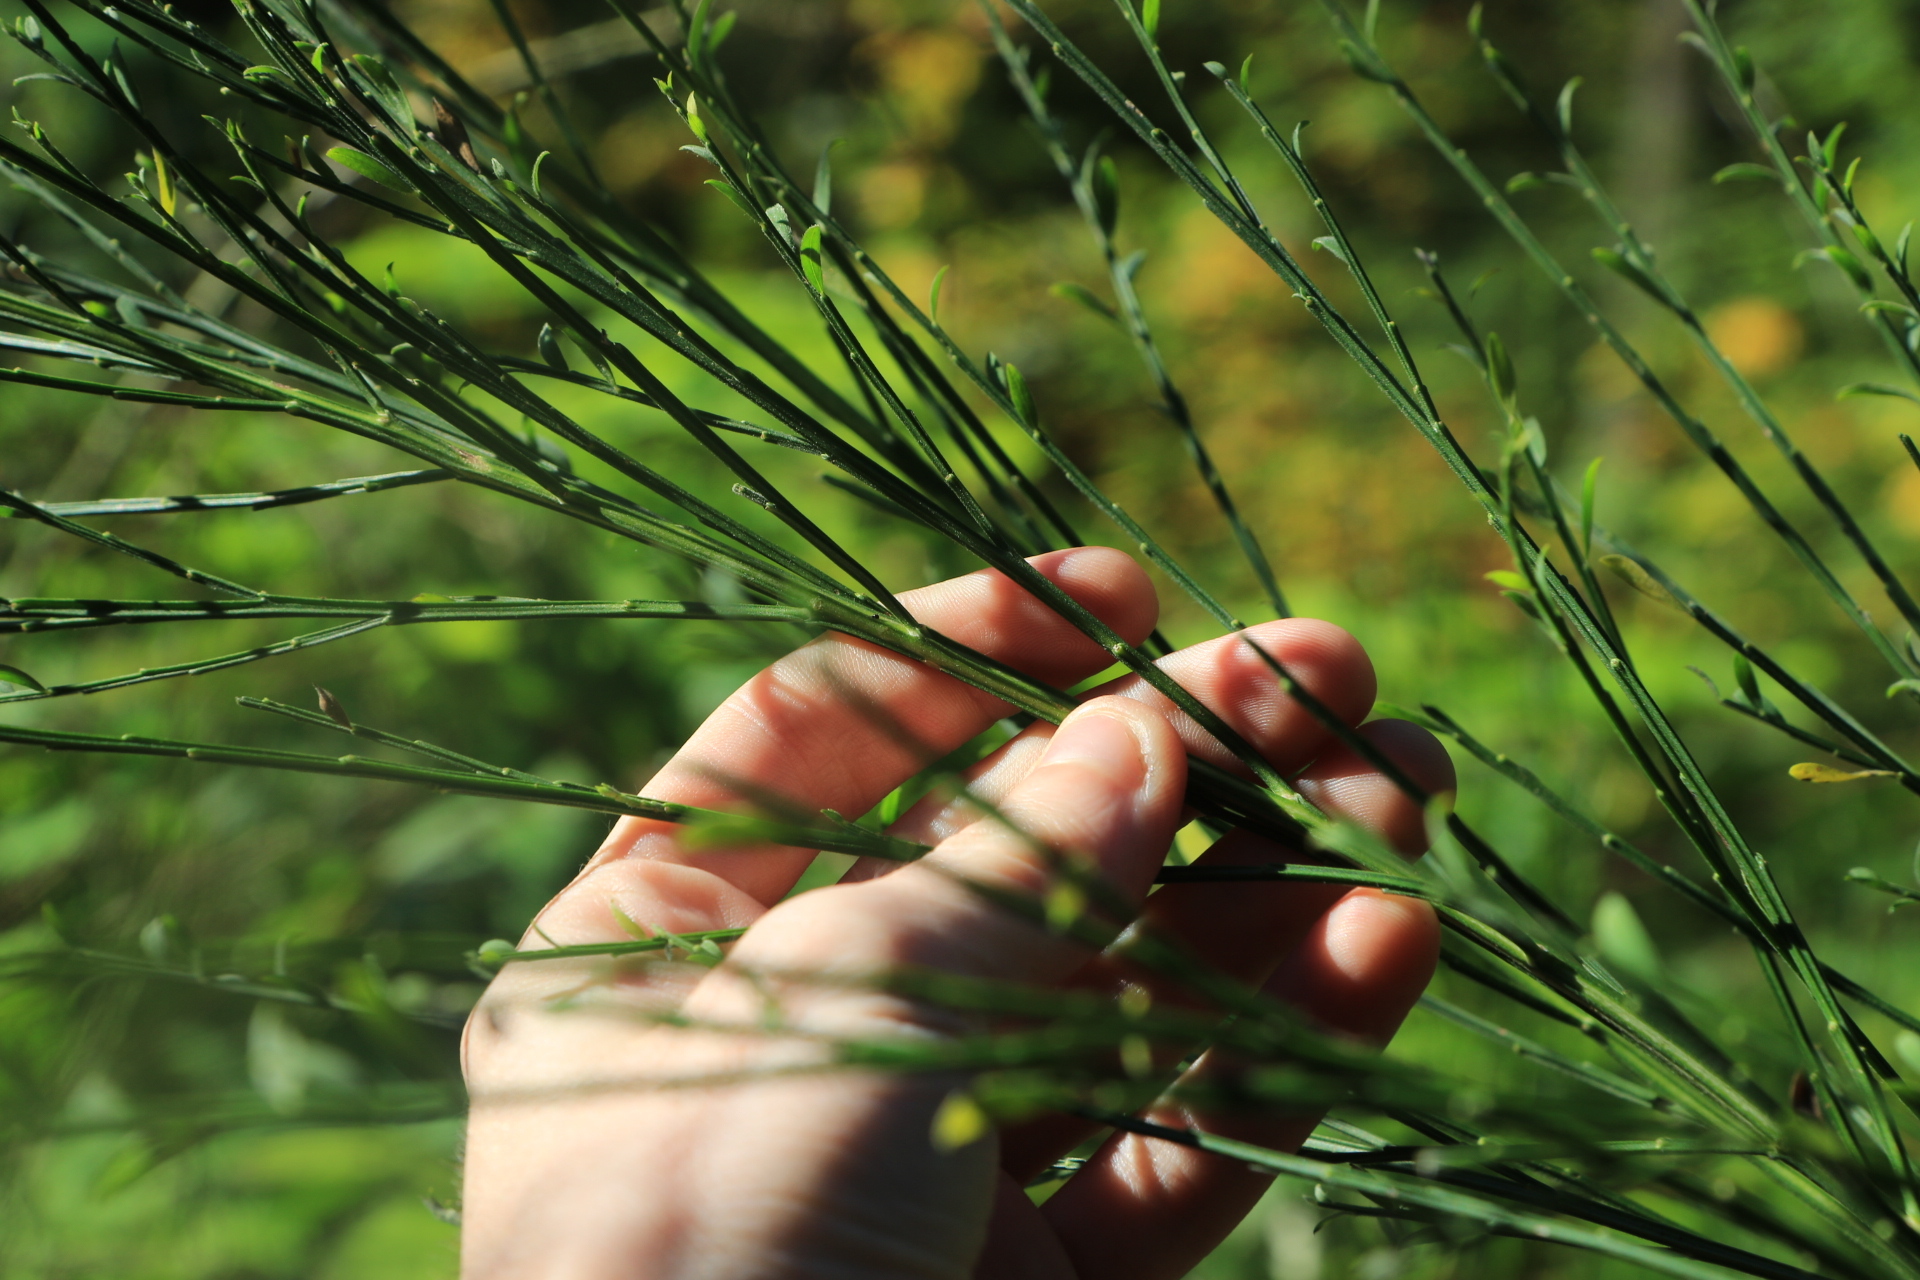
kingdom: Plantae
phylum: Tracheophyta
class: Magnoliopsida
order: Fabales
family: Fabaceae
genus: Cytisus
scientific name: Cytisus scoparius
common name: Scotch broom
